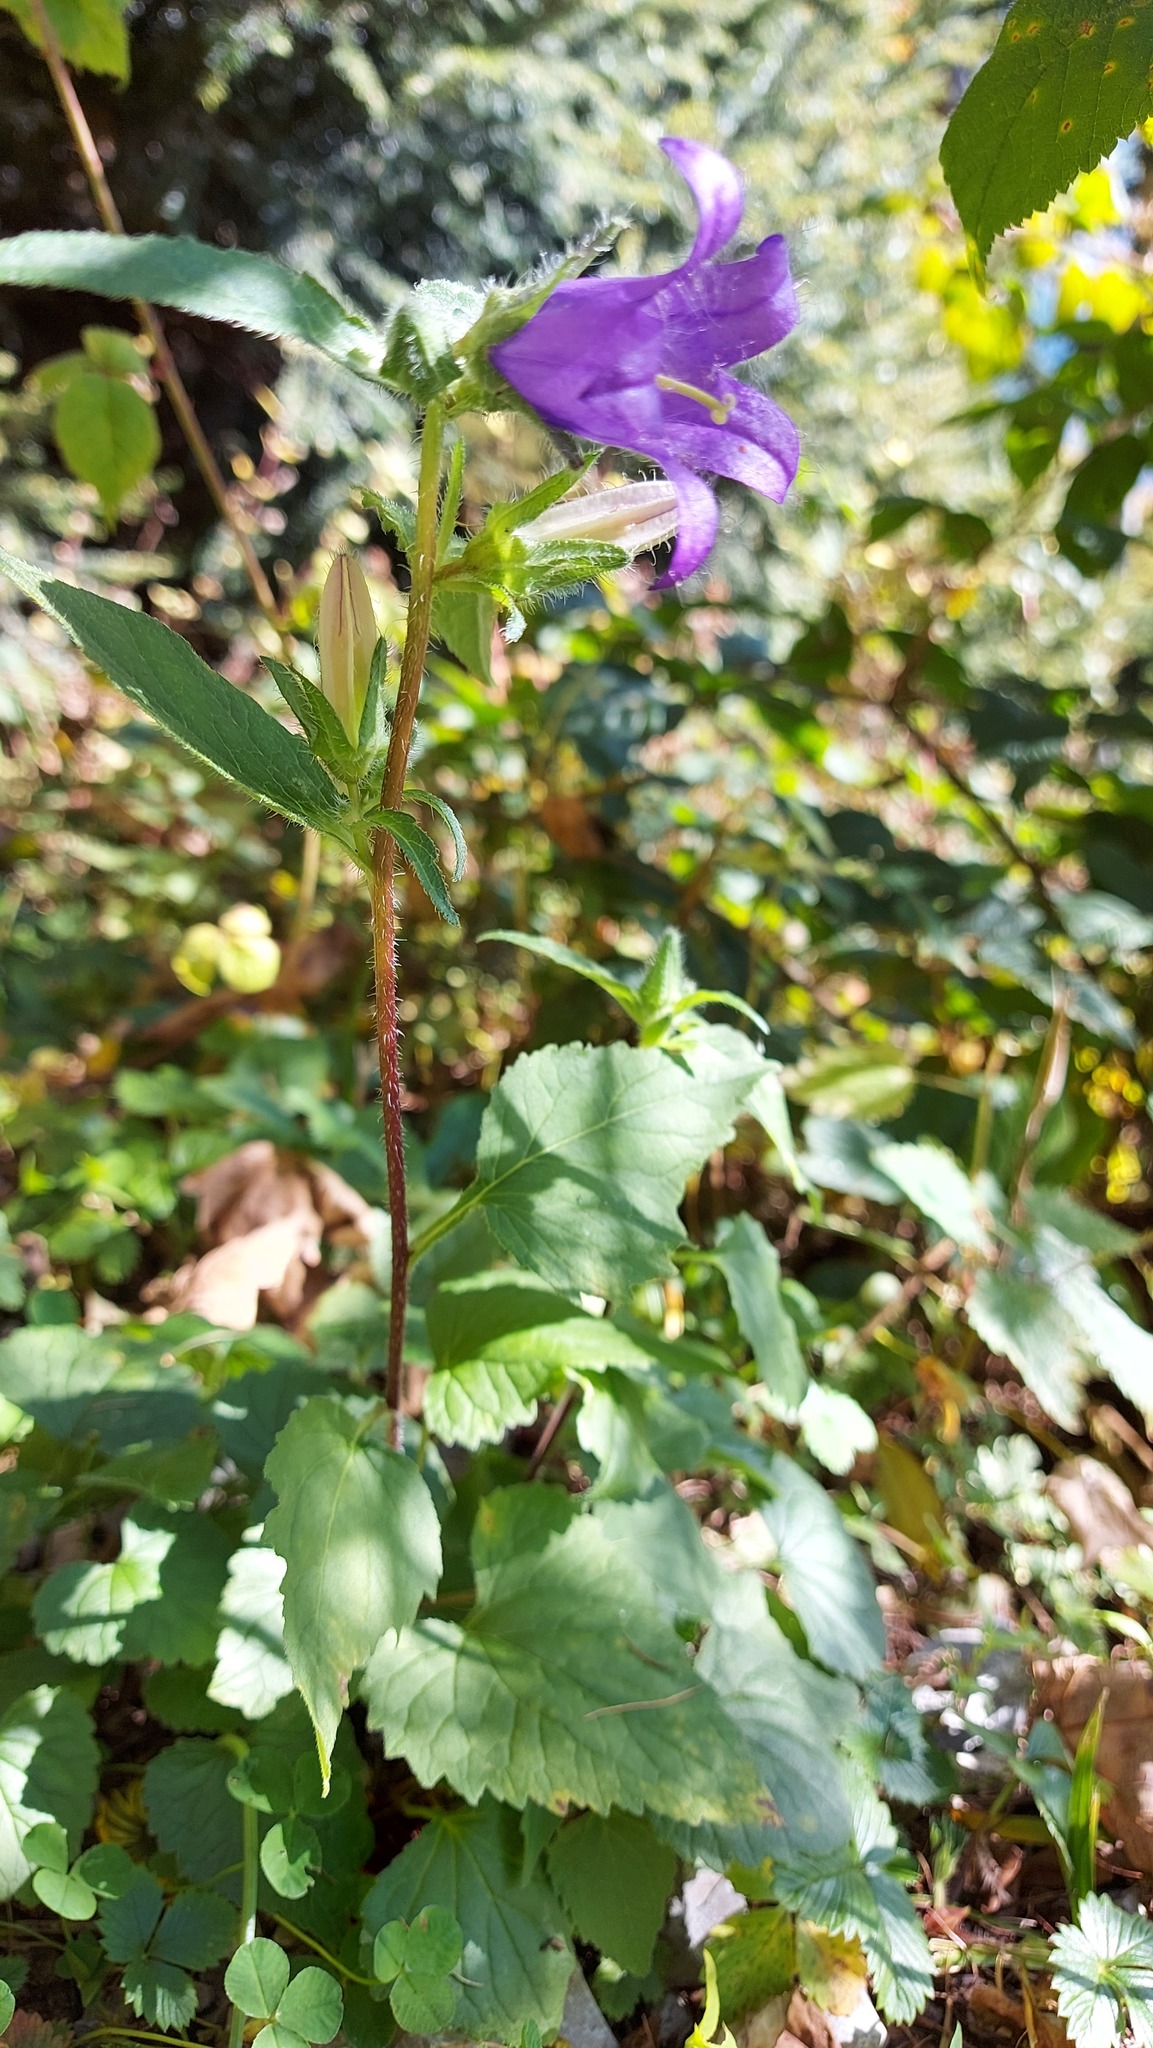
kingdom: Plantae
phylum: Tracheophyta
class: Magnoliopsida
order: Asterales
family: Campanulaceae
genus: Campanula
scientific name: Campanula trachelium
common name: Nettle-leaved bellflower
